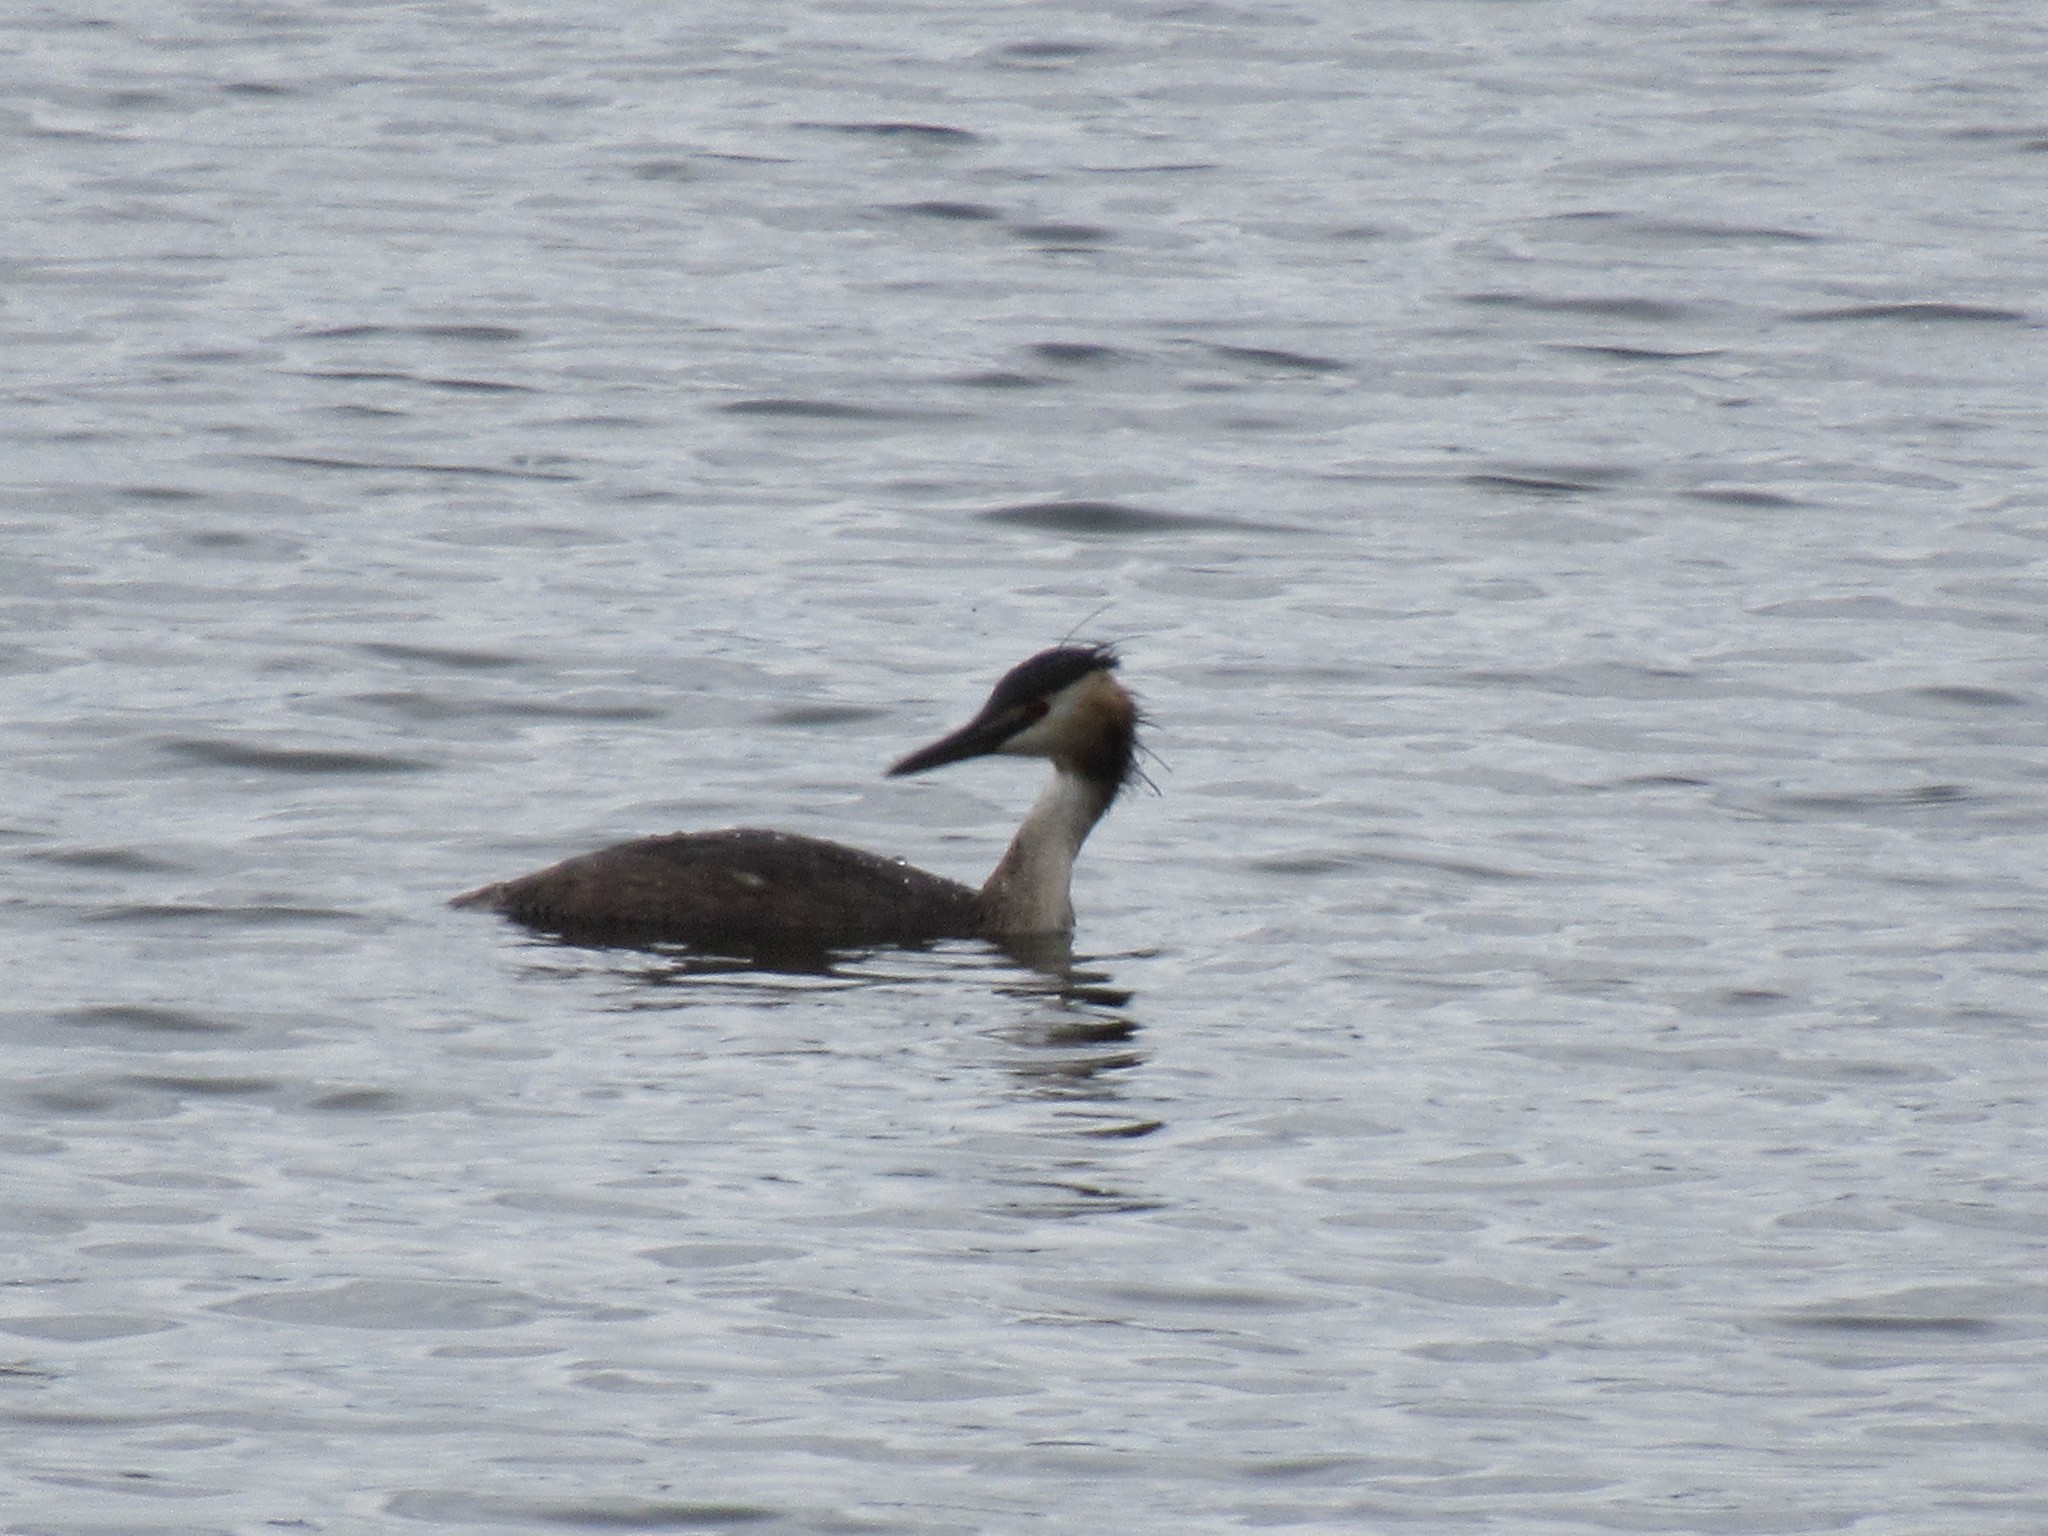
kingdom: Animalia
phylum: Chordata
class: Aves
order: Podicipediformes
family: Podicipedidae
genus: Podiceps
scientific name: Podiceps cristatus
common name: Great crested grebe
